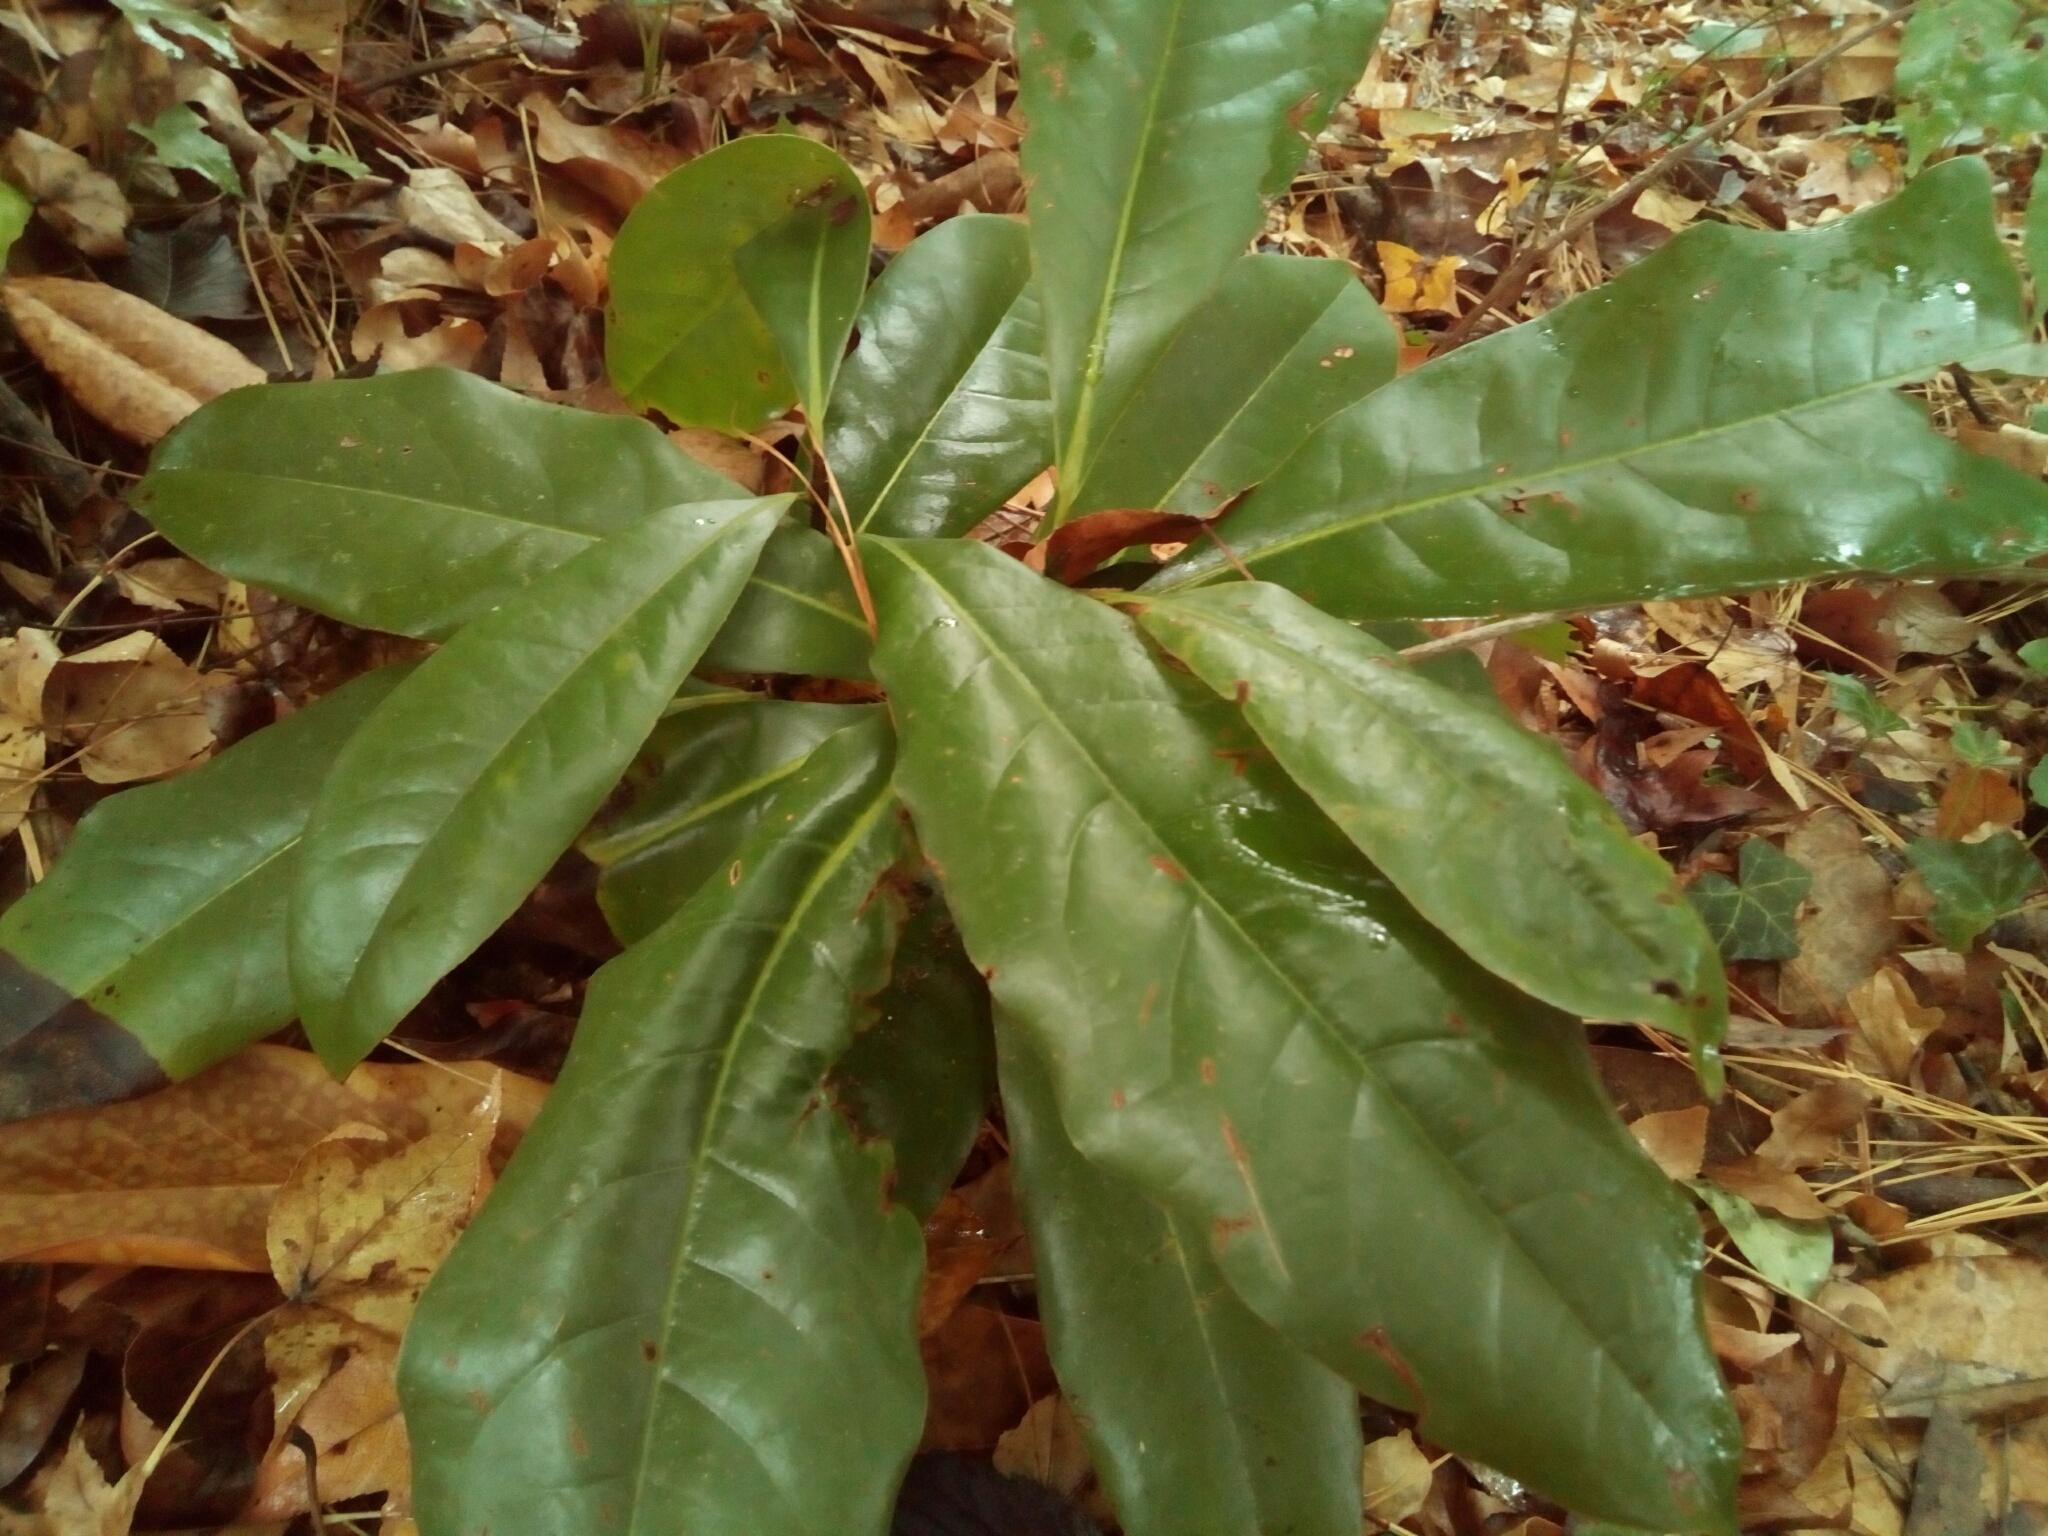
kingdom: Plantae
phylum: Tracheophyta
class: Magnoliopsida
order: Magnoliales
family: Magnoliaceae
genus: Magnolia
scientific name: Magnolia grandiflora
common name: Southern magnolia
